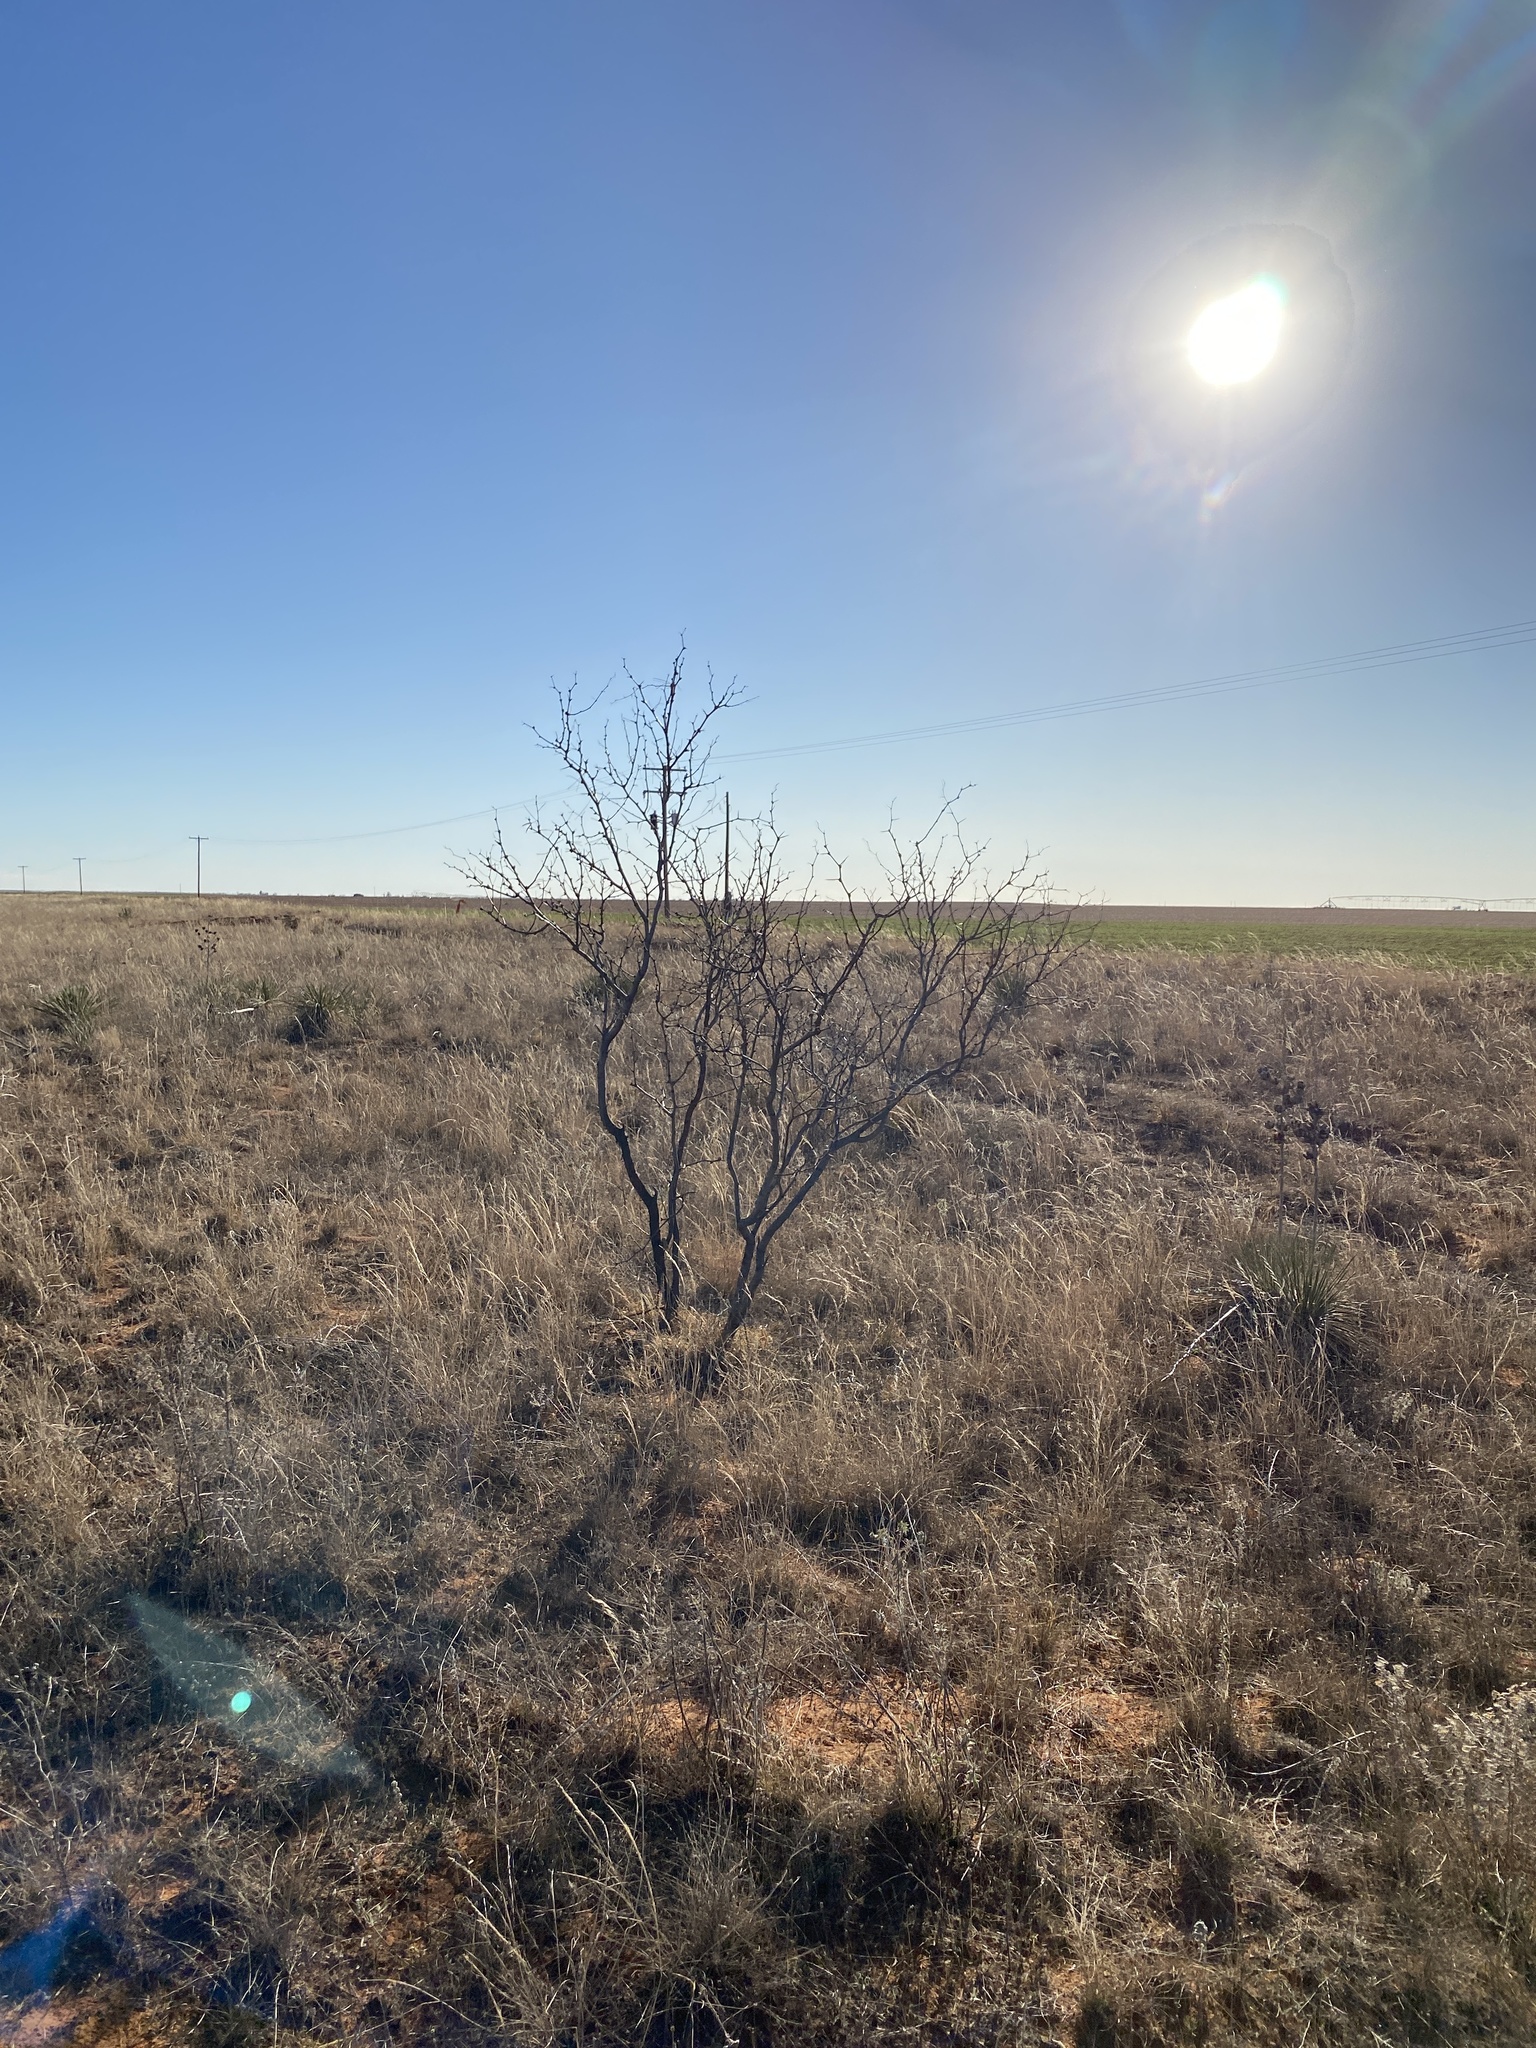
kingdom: Plantae
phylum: Tracheophyta
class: Magnoliopsida
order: Fabales
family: Fabaceae
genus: Prosopis
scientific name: Prosopis glandulosa
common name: Honey mesquite
